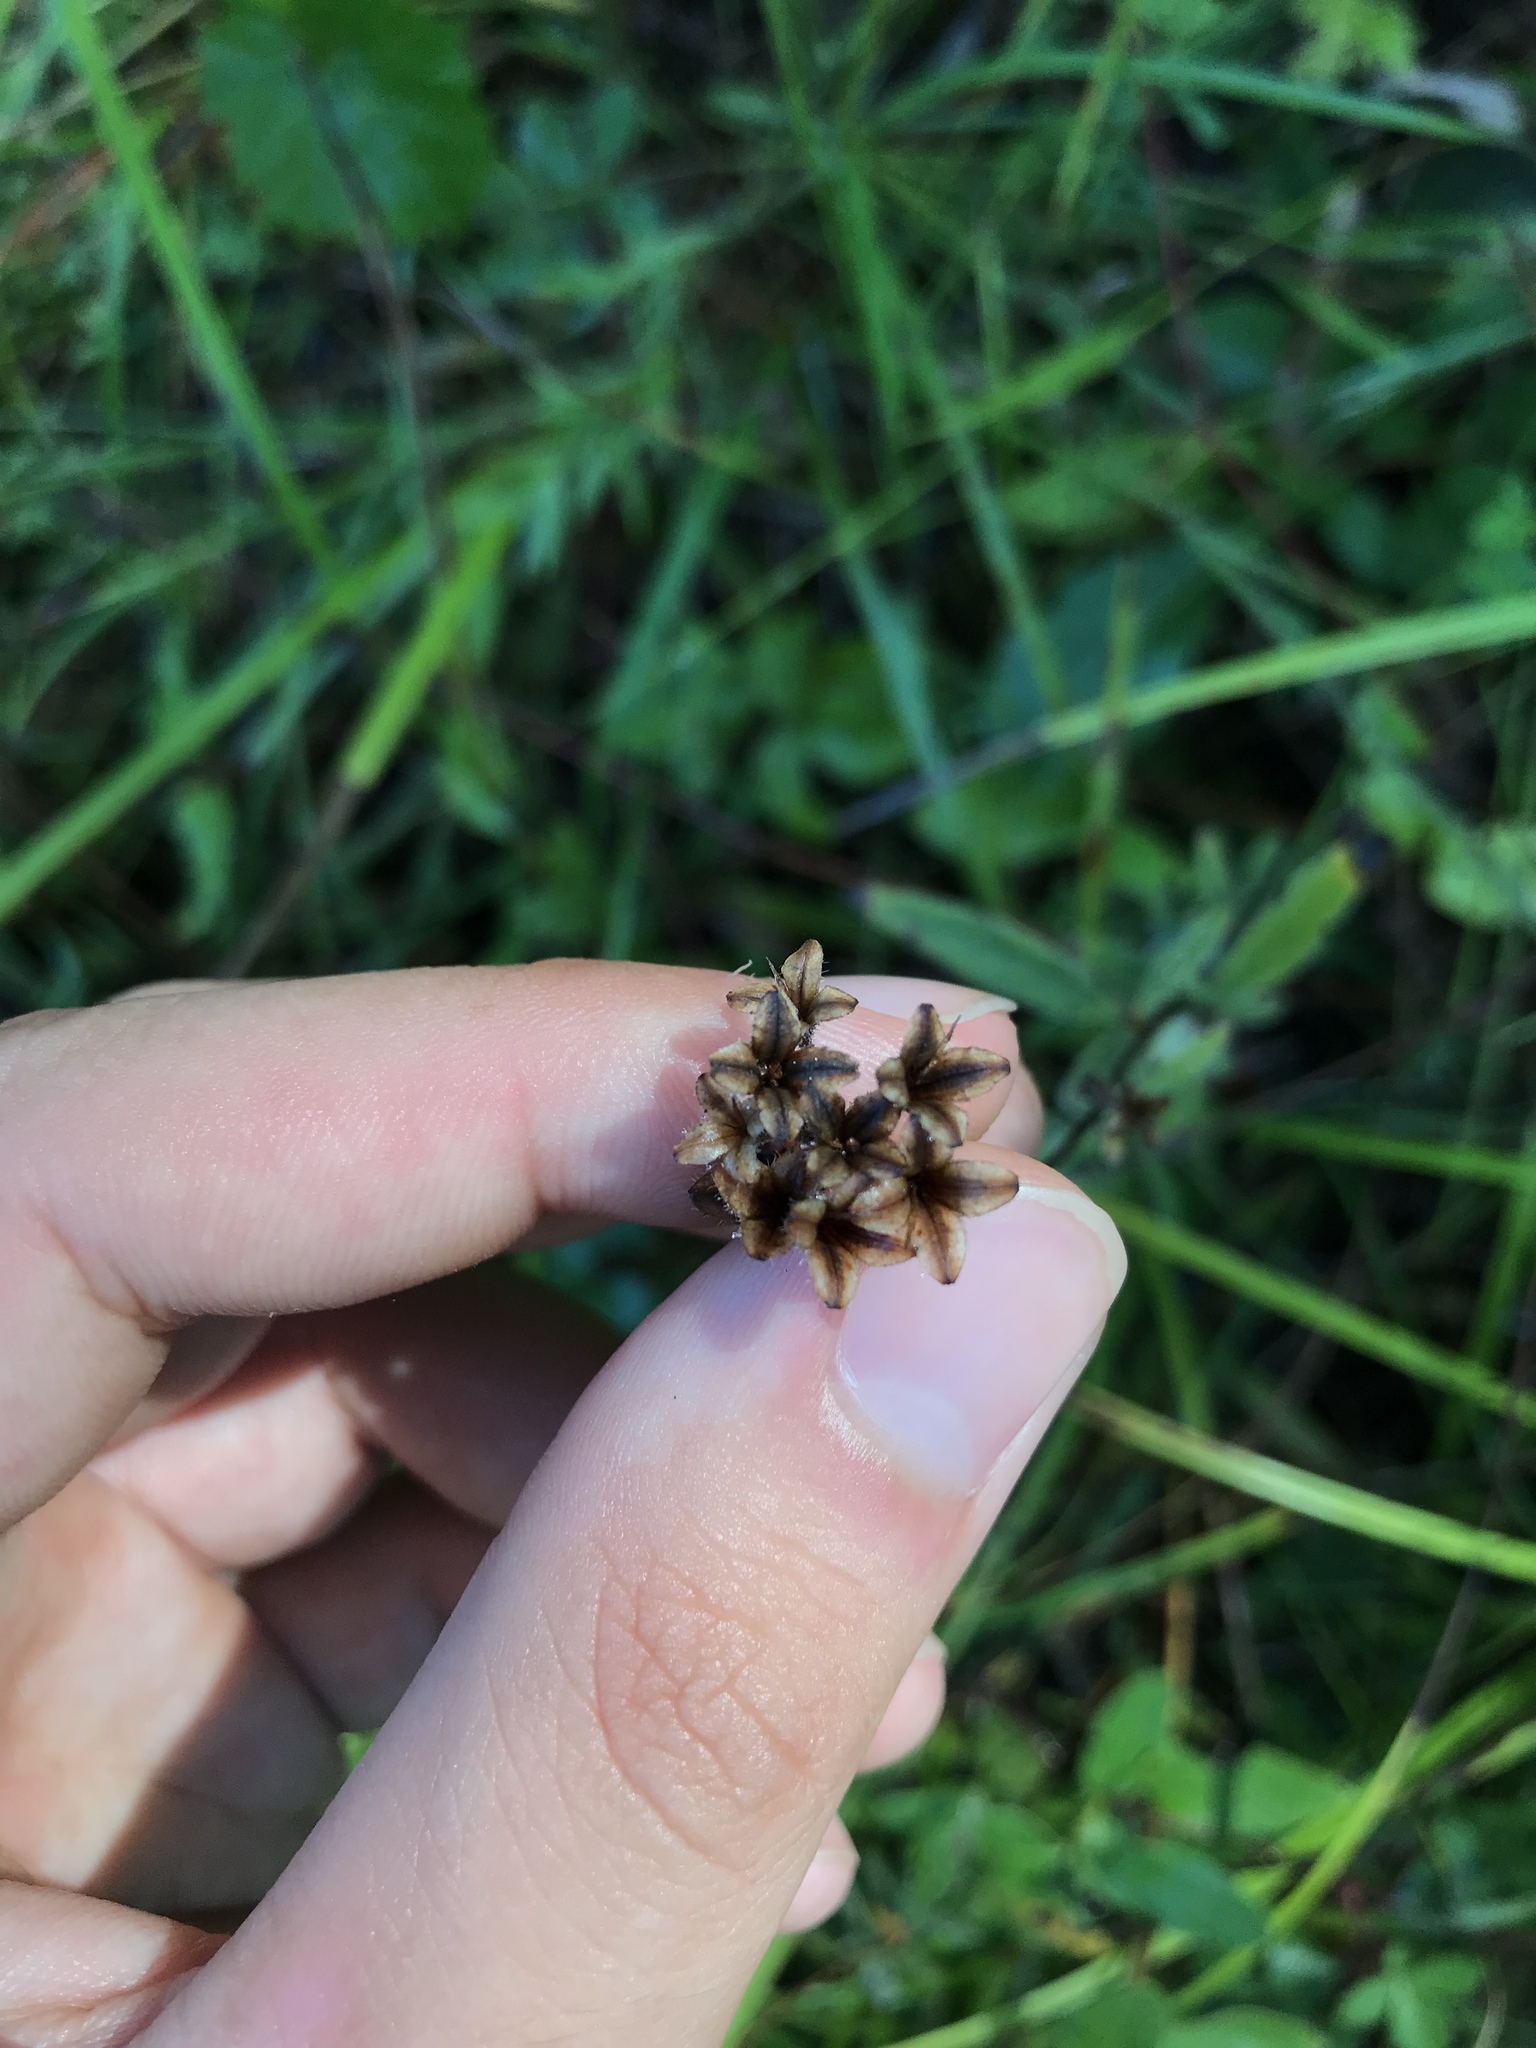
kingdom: Plantae
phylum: Tracheophyta
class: Magnoliopsida
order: Myrtales
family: Onagraceae
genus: Oenothera
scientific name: Oenothera fruticosa
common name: Southern sundrops
